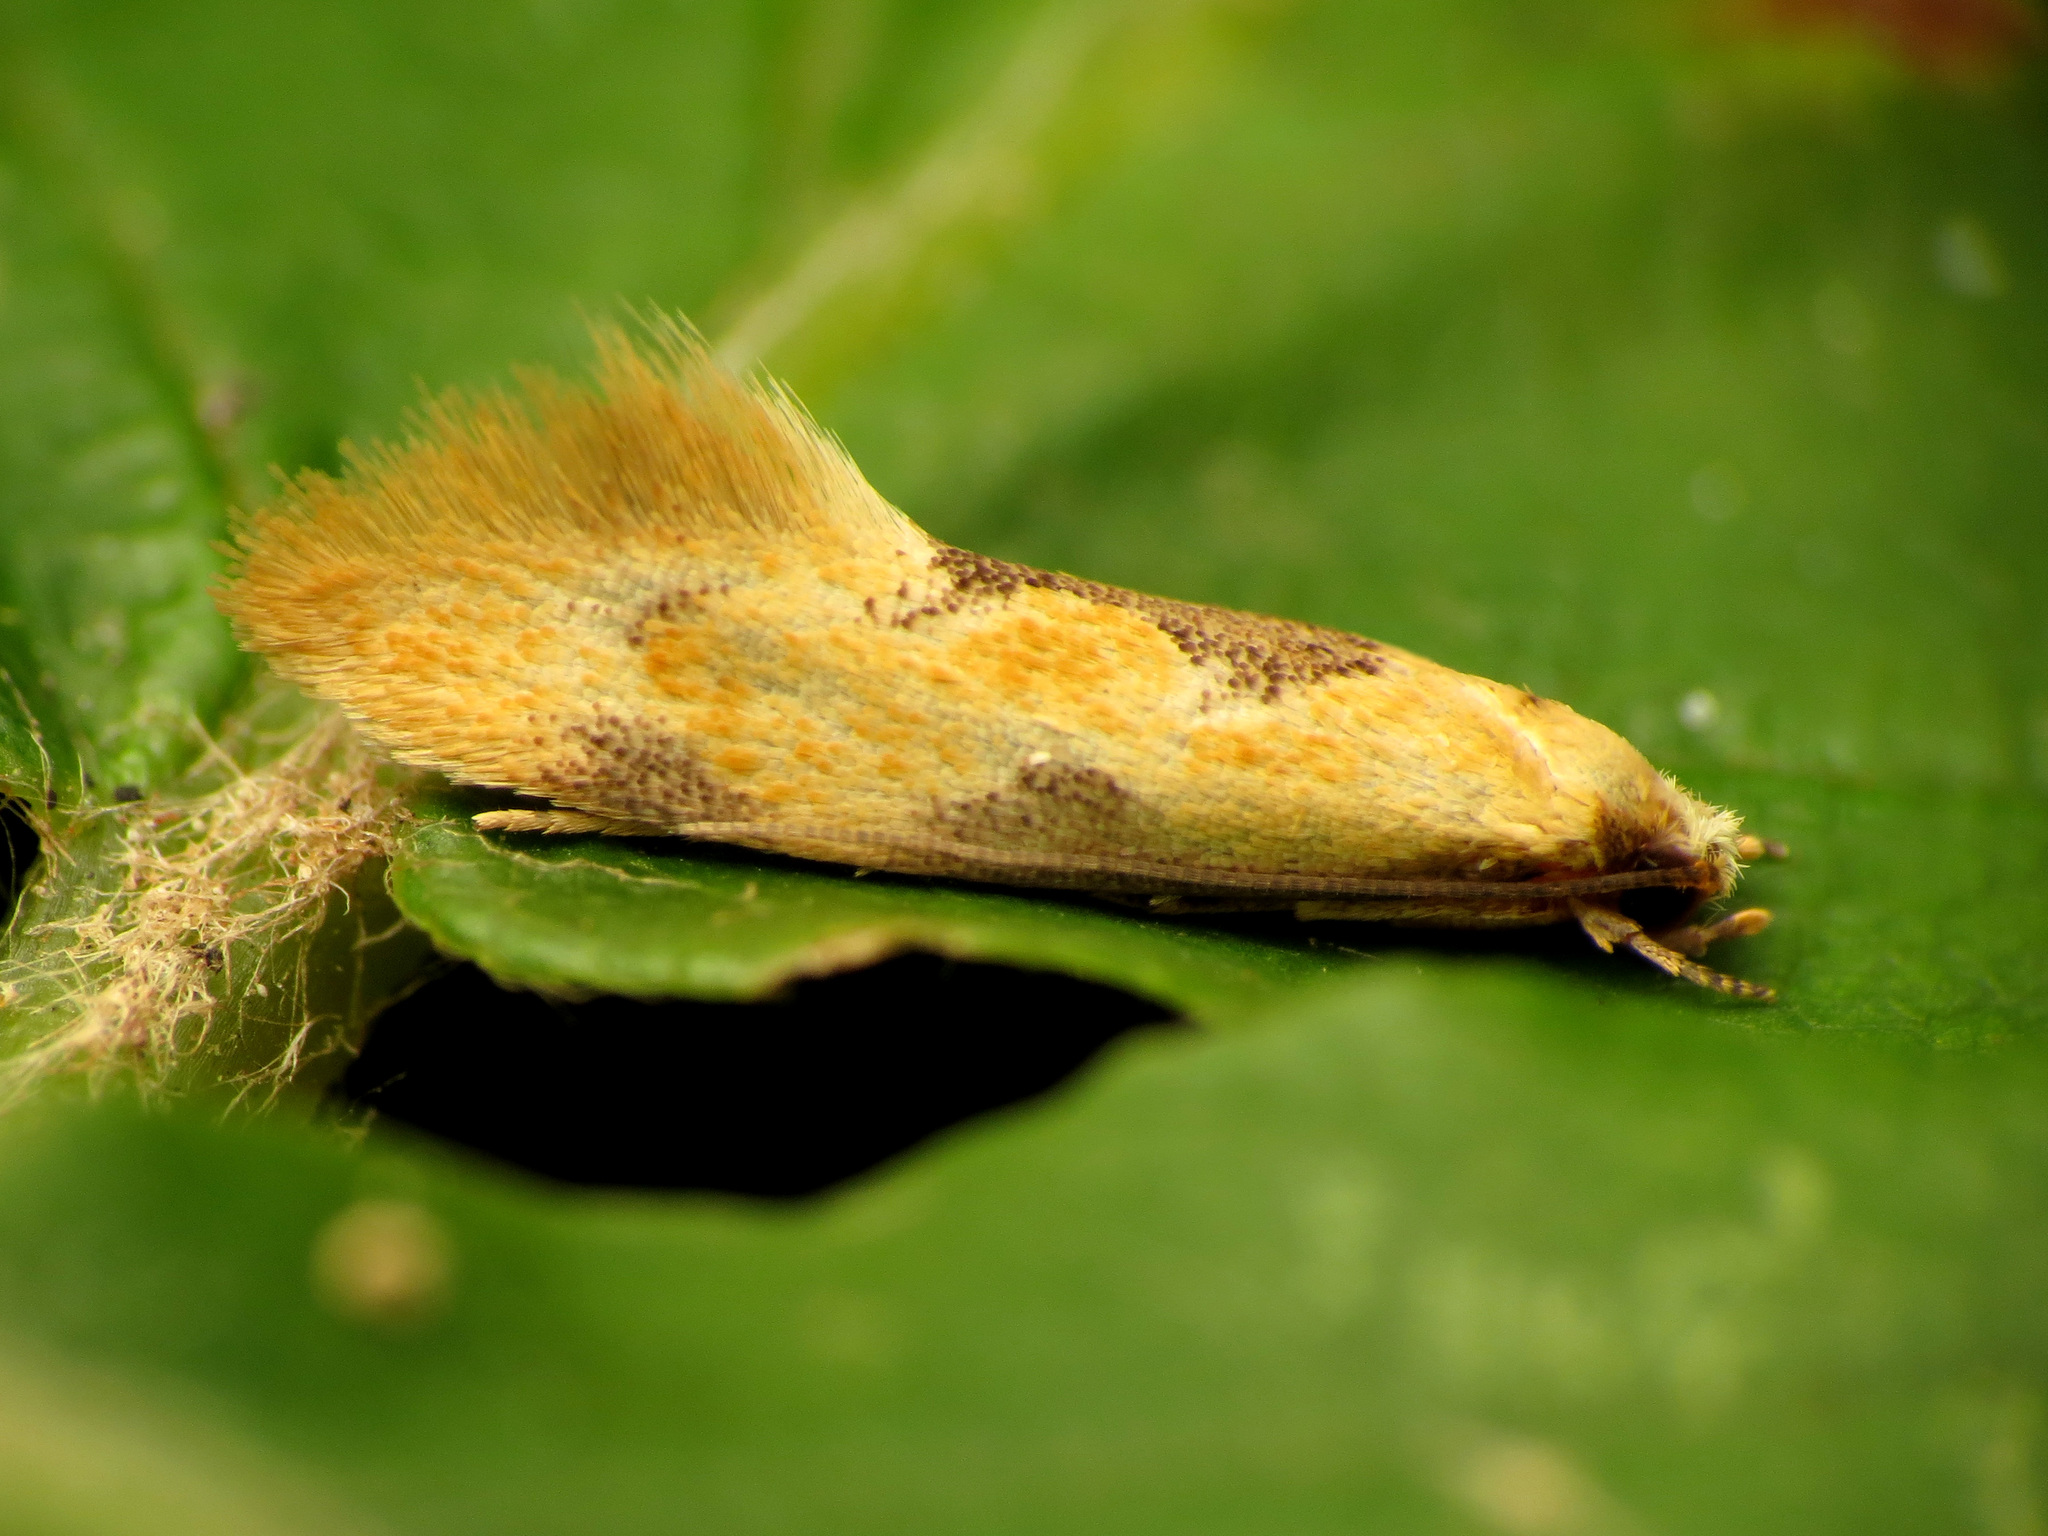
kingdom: Animalia
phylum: Arthropoda
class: Insecta
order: Lepidoptera
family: Meessiidae
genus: Hybroma
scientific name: Hybroma servulella
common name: Yellow wave moth
